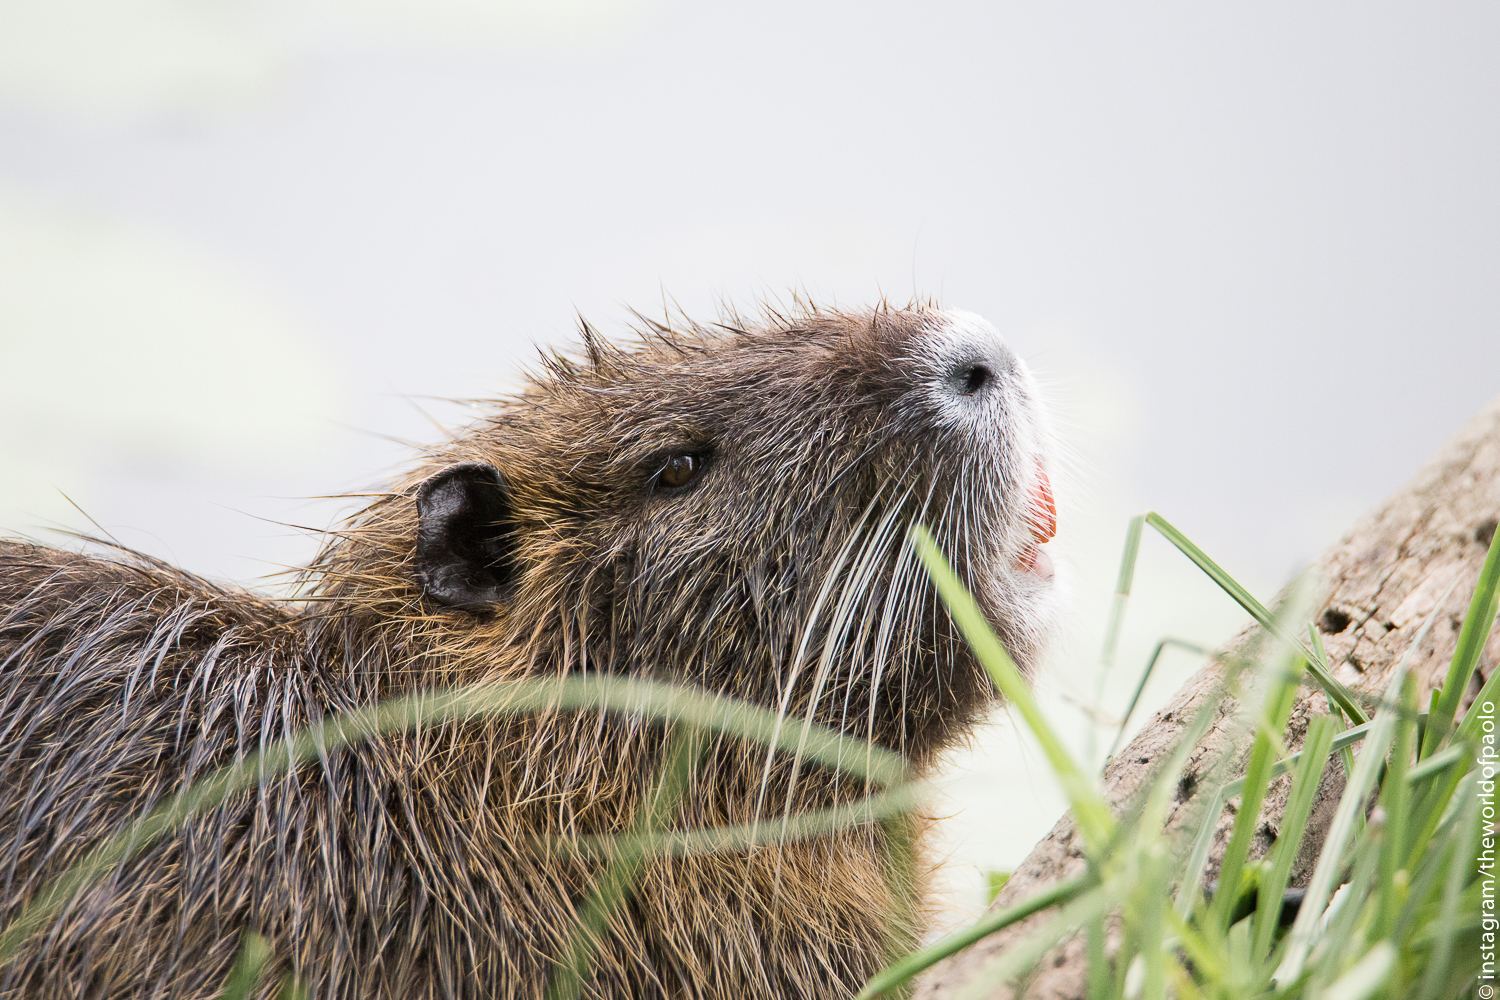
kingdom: Animalia
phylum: Chordata
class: Mammalia
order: Rodentia
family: Myocastoridae
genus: Myocastor
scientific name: Myocastor coypus
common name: Coypu
